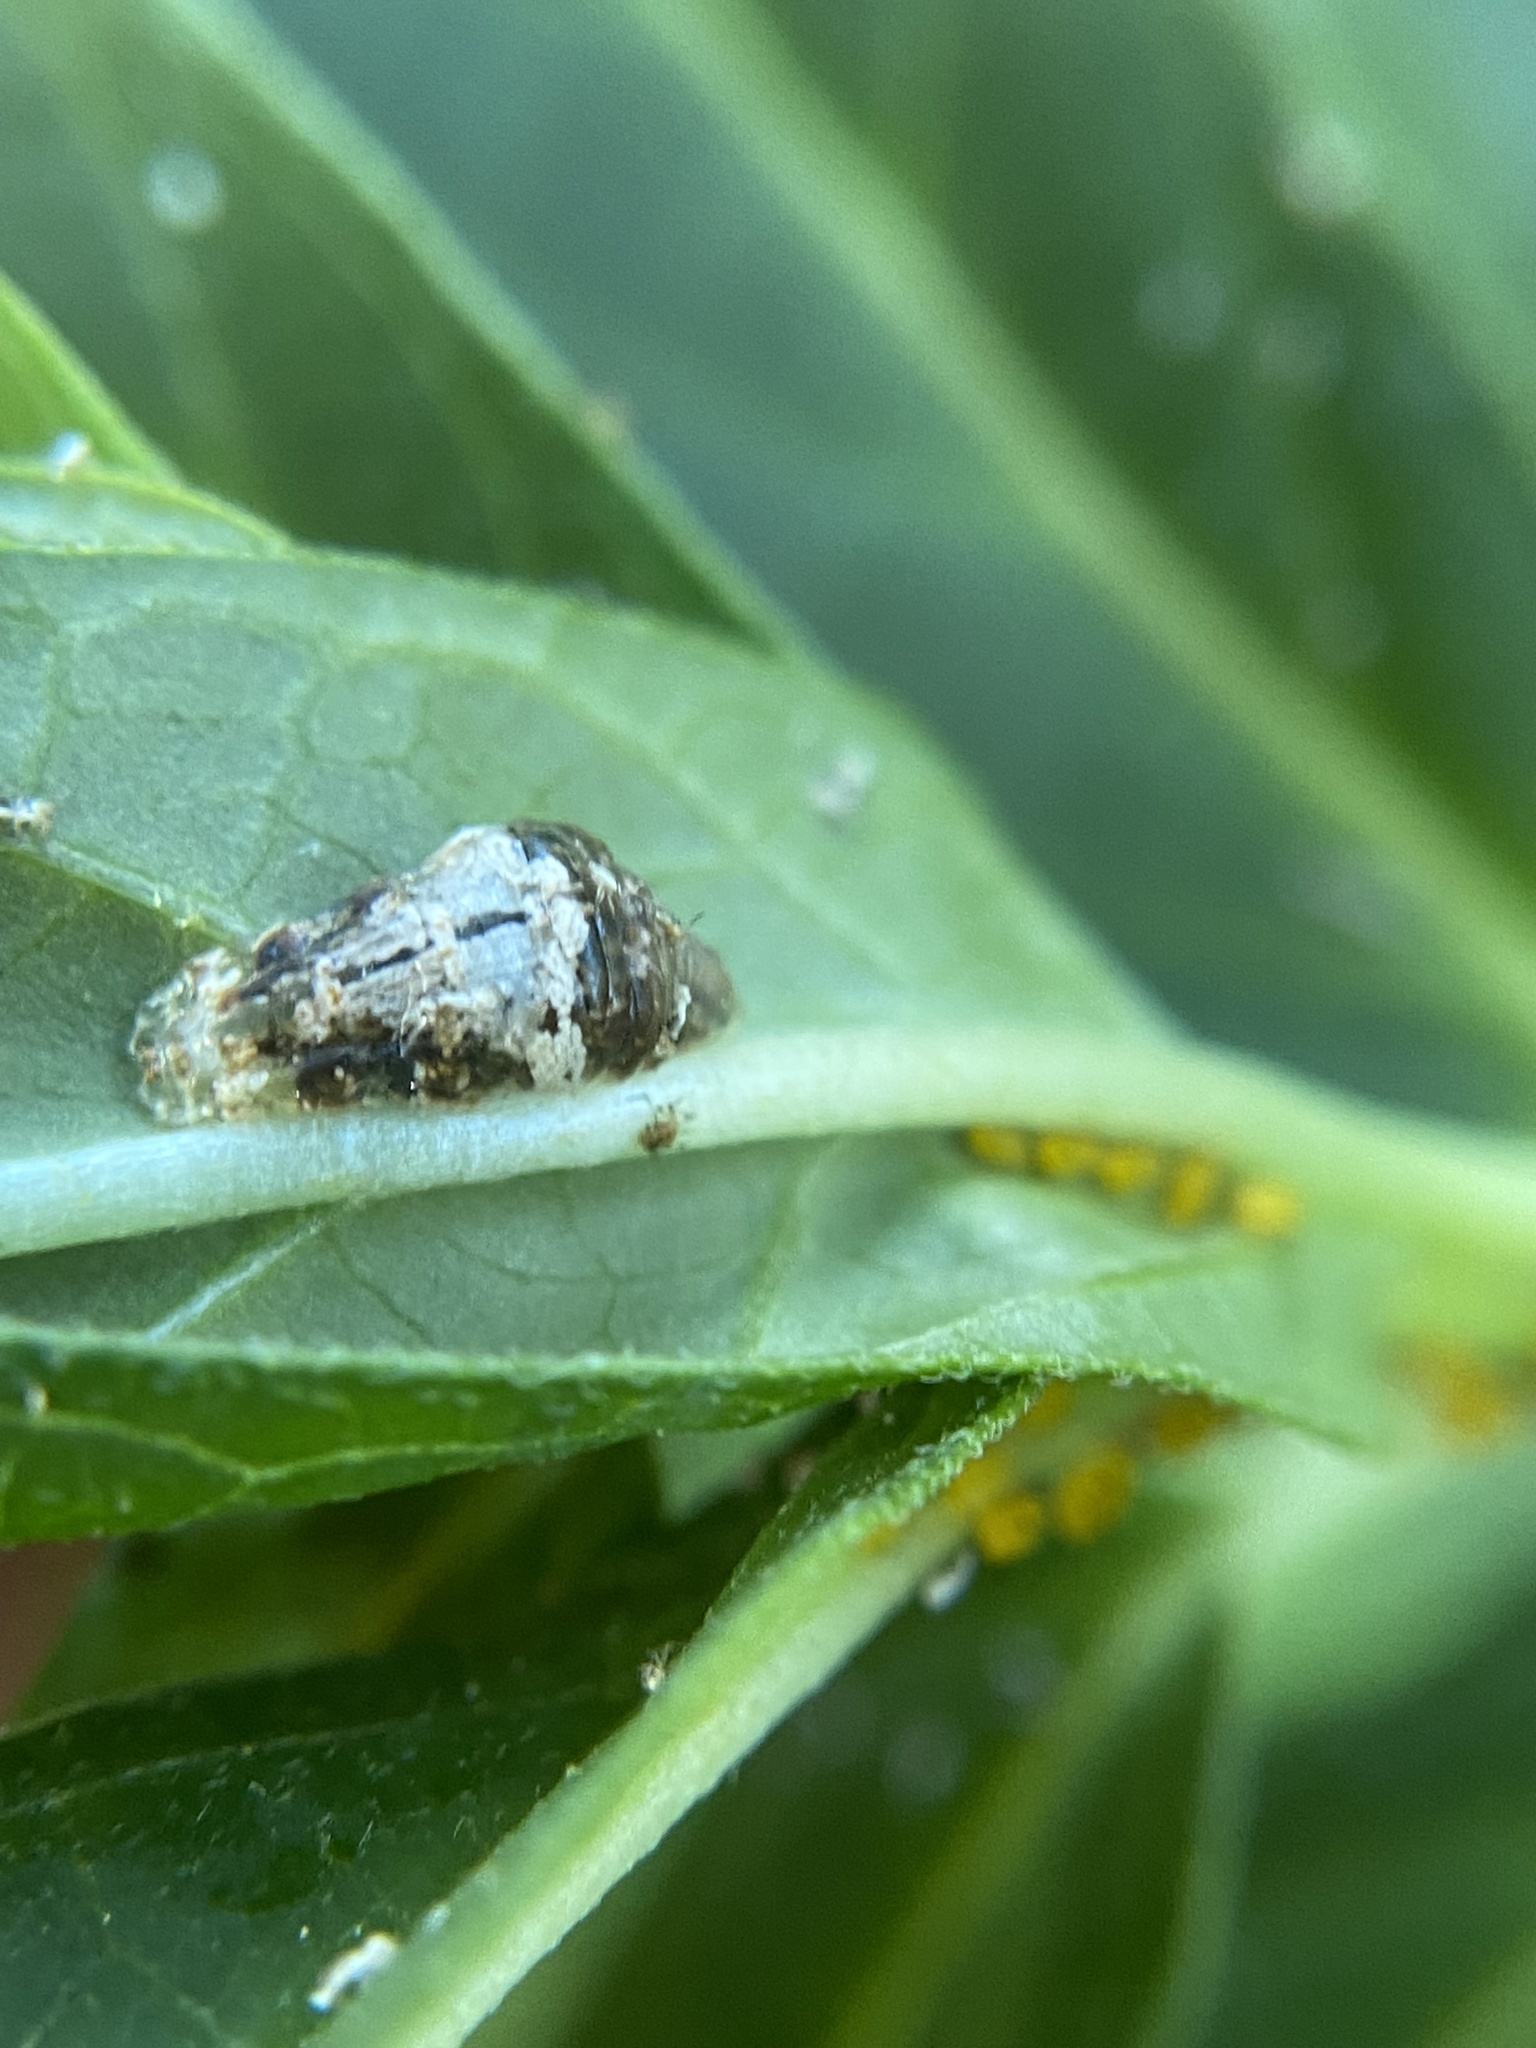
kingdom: Animalia
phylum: Arthropoda
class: Insecta
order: Diptera
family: Syrphidae
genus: Ocyptamus
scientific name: Ocyptamus fuscipennis
